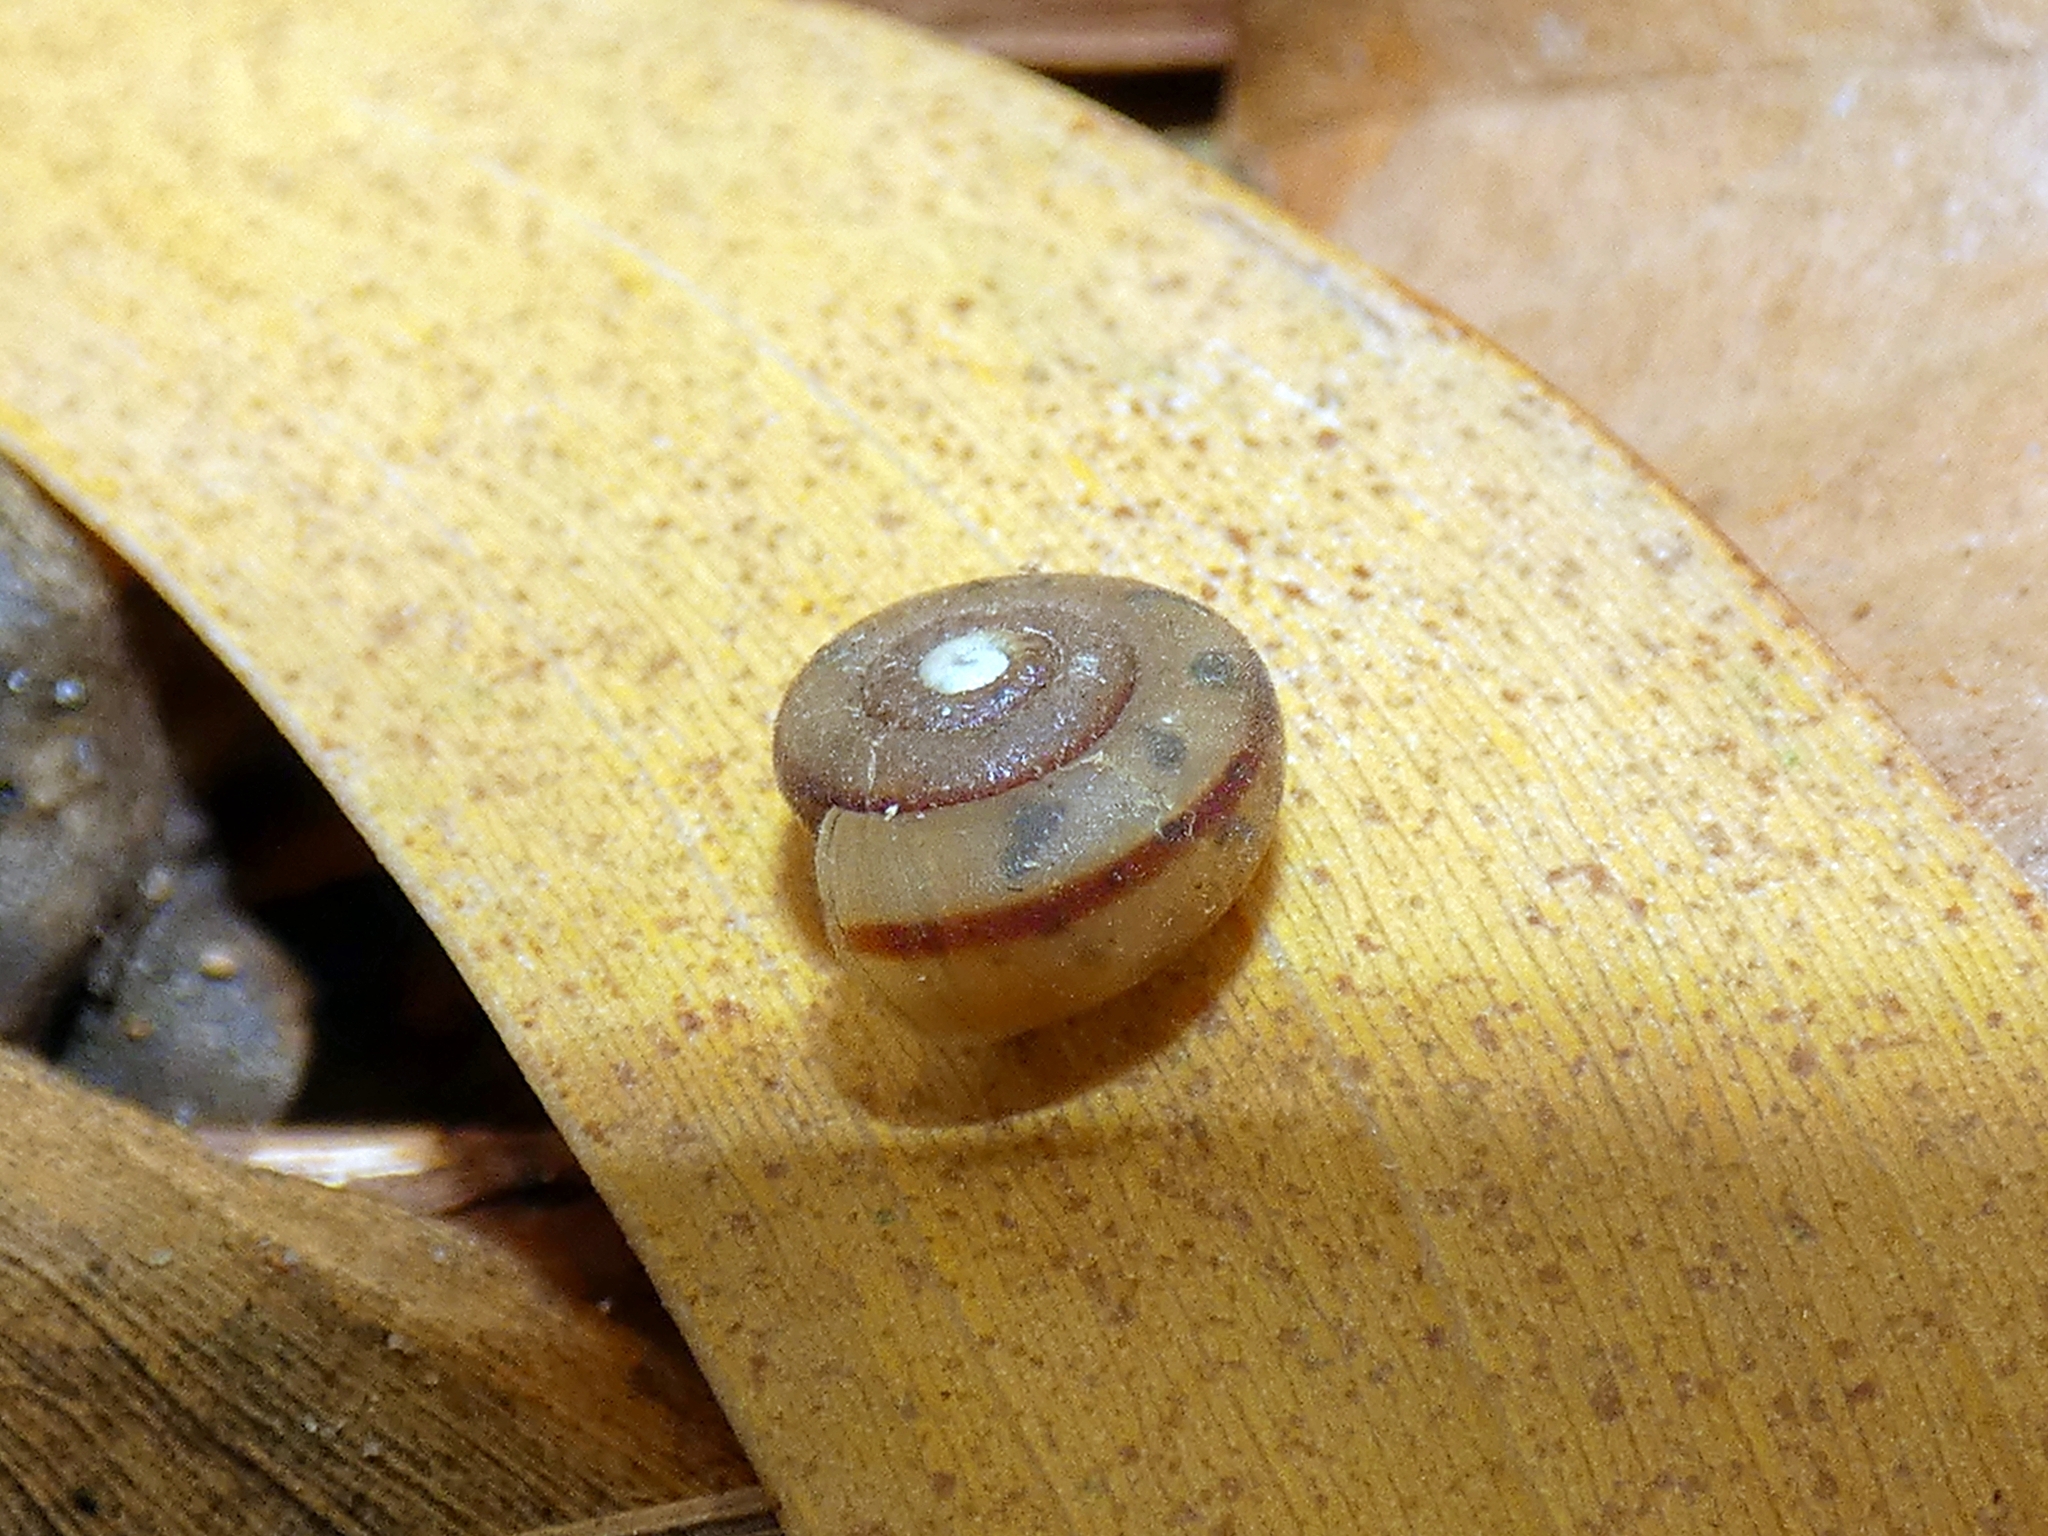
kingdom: Animalia
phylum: Mollusca
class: Gastropoda
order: Stylommatophora
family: Camaenidae
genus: Protolinitis
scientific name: Protolinitis terriirwinae
